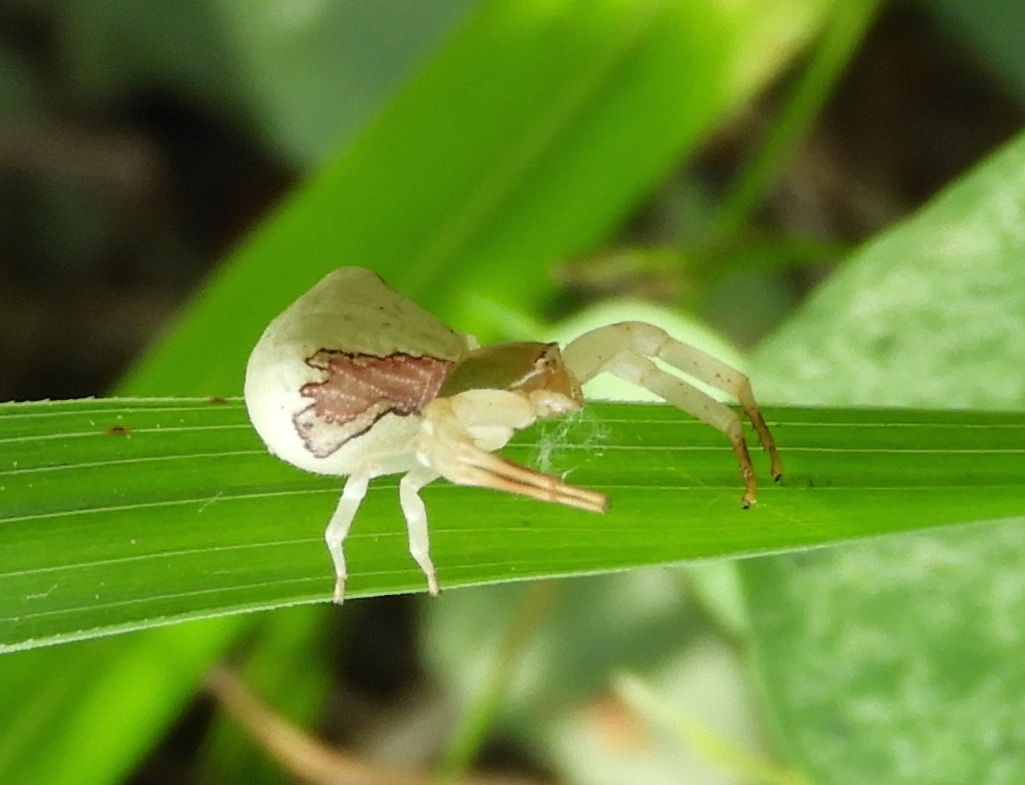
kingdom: Animalia
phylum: Arthropoda
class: Arachnida
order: Araneae
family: Thomisidae
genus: Misumenoides
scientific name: Misumenoides
